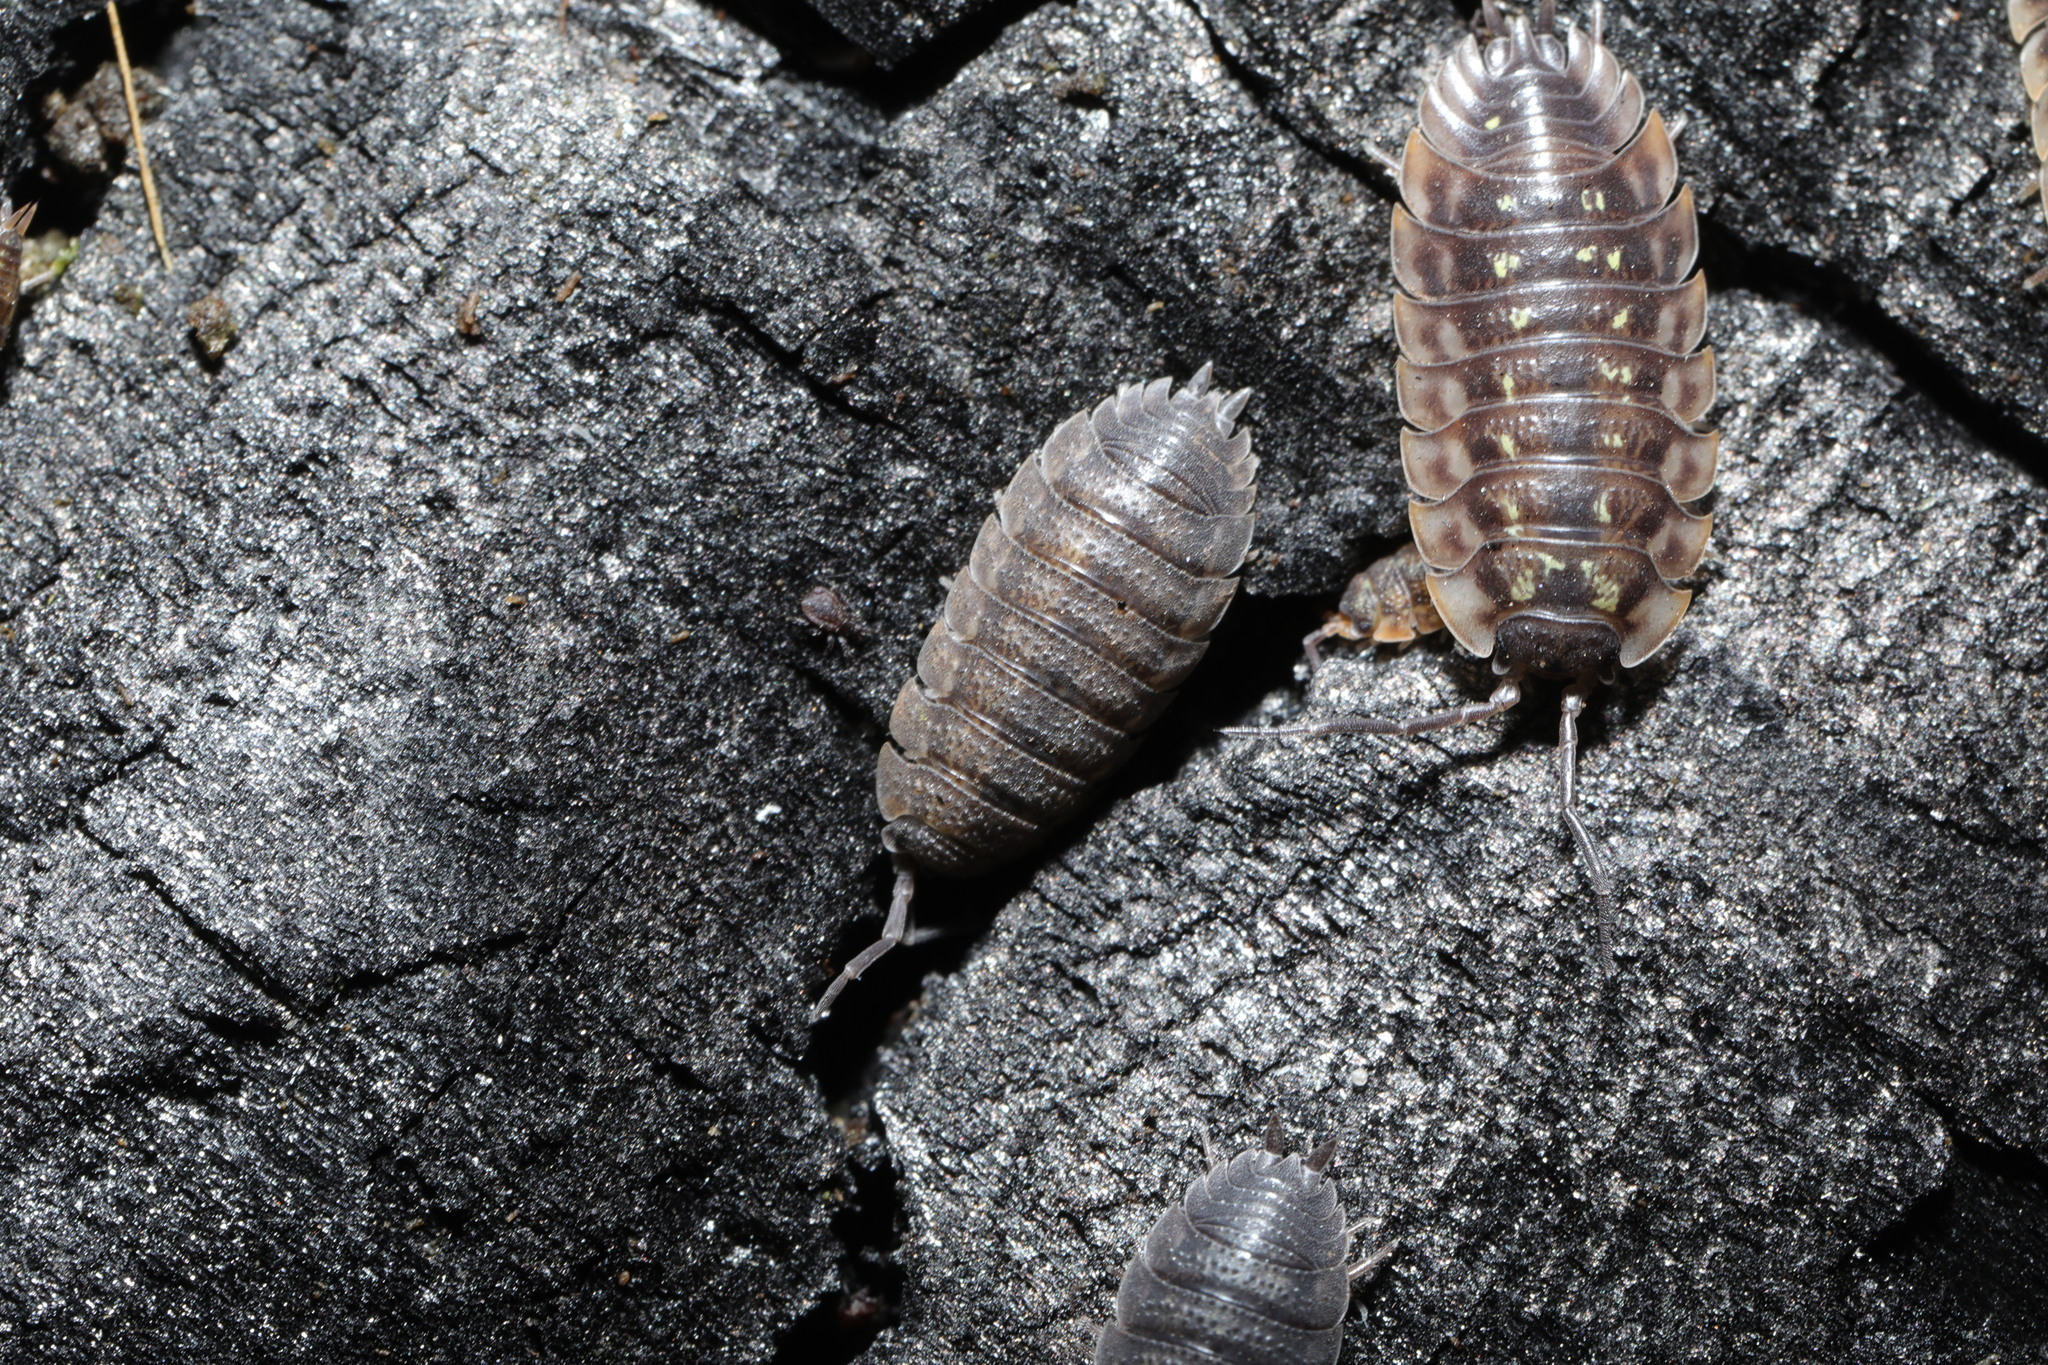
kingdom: Animalia
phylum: Arthropoda
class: Malacostraca
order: Isopoda
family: Porcellionidae
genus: Porcellio
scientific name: Porcellio scaber
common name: Common rough woodlouse
